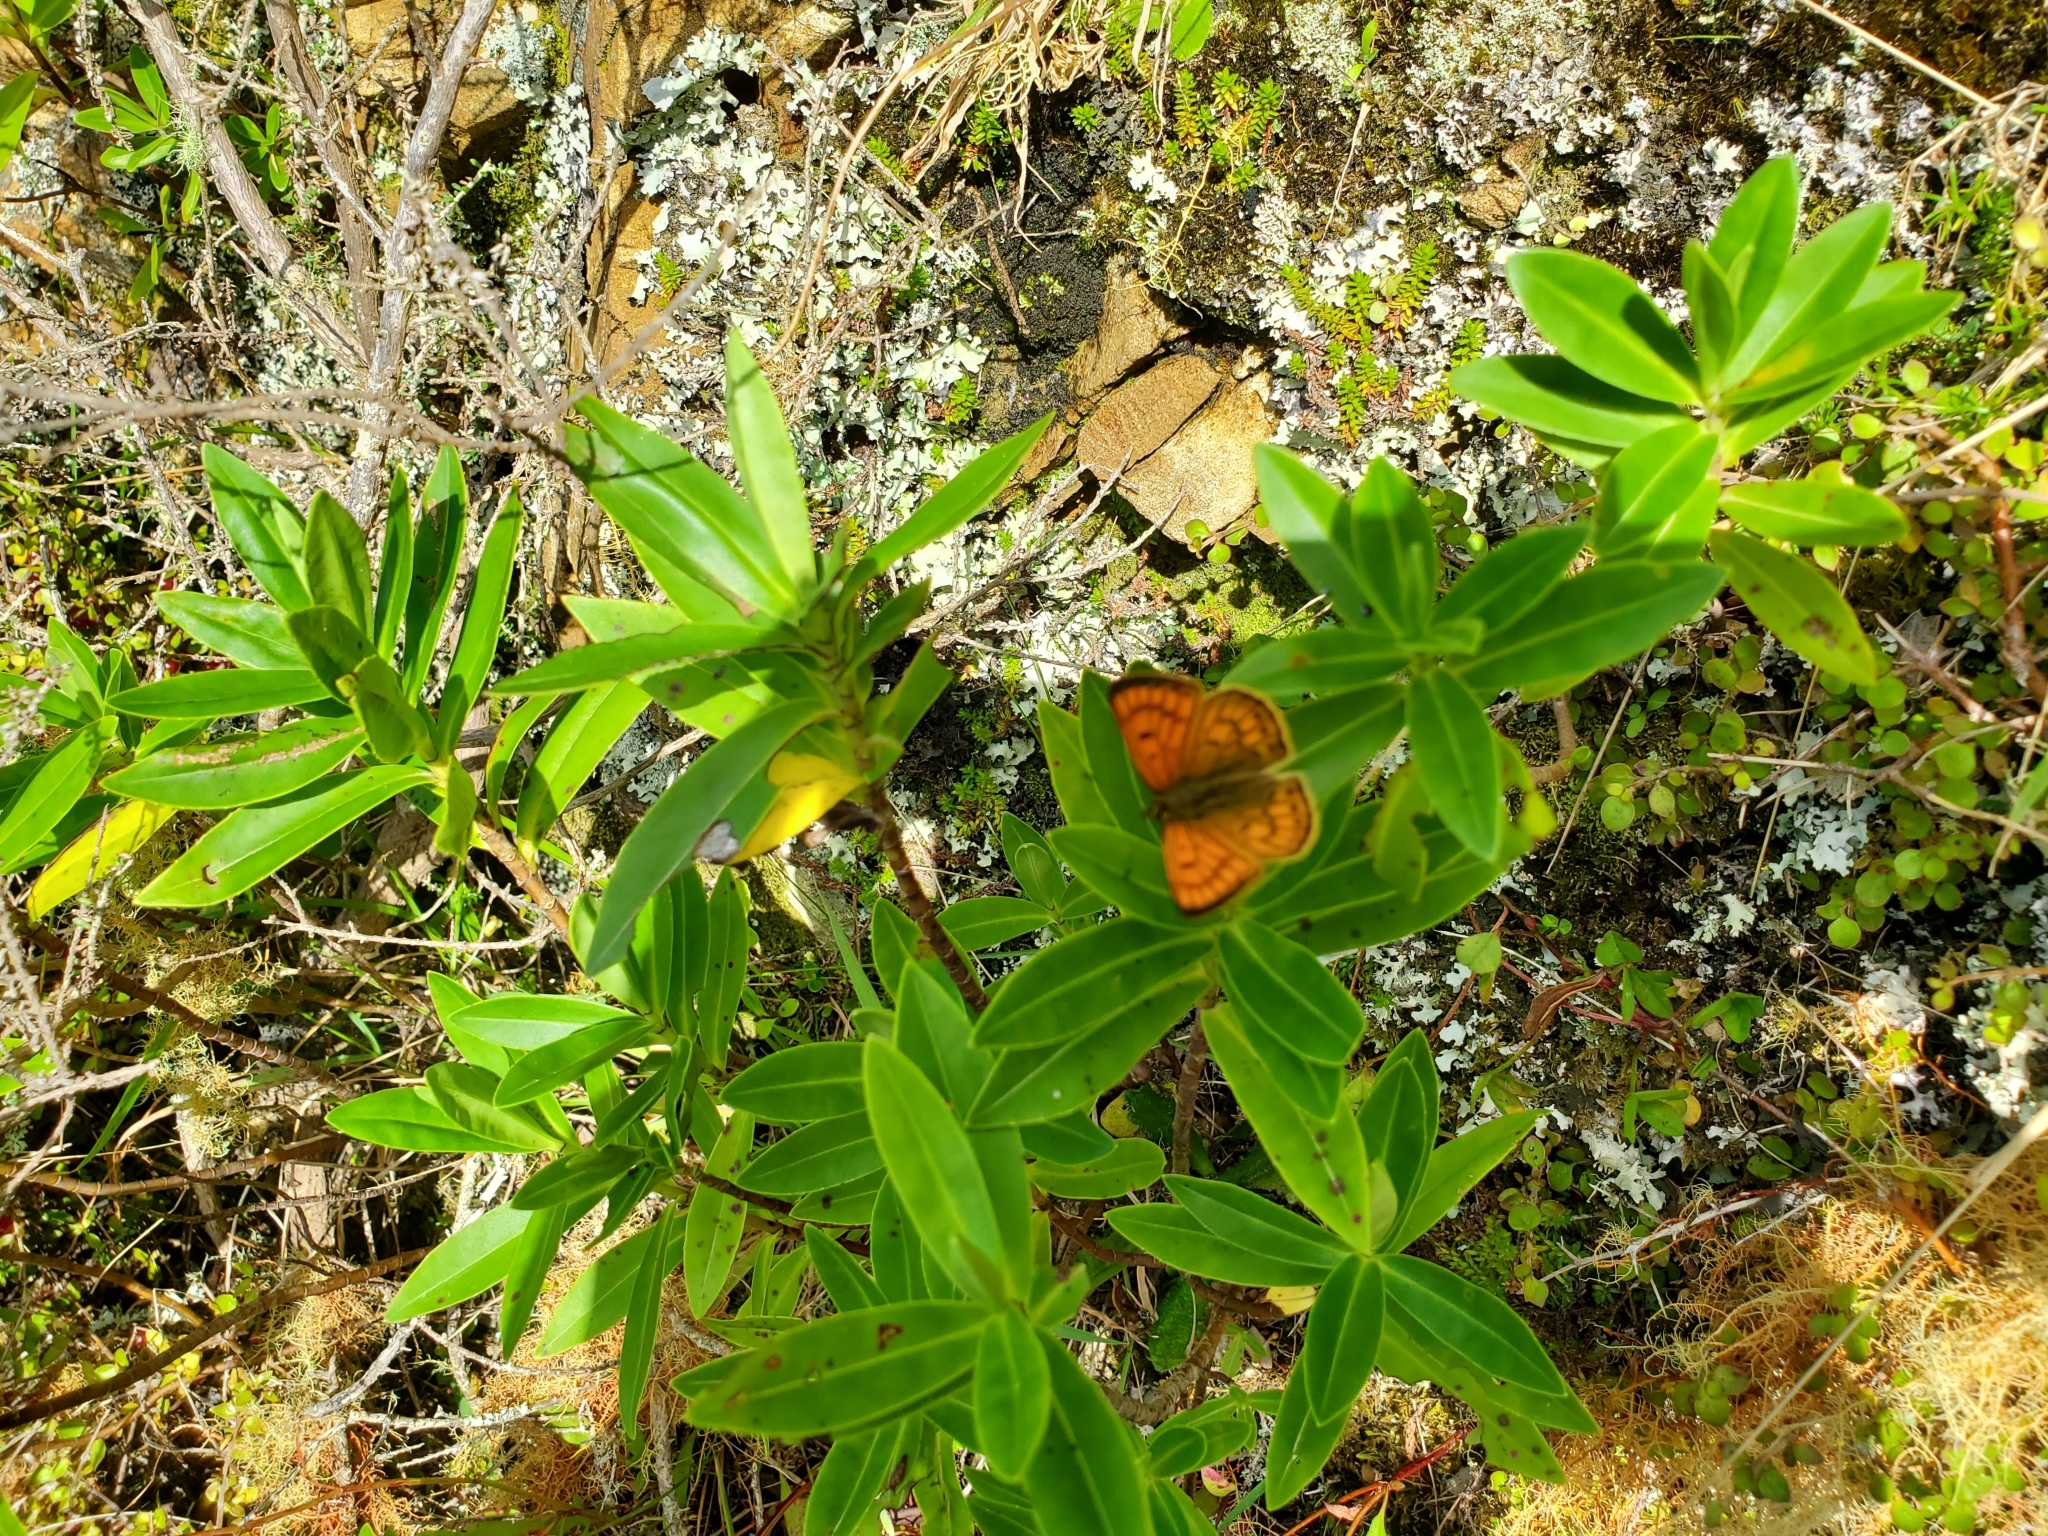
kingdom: Animalia
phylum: Arthropoda
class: Insecta
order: Lepidoptera
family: Lycaenidae
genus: Lycaena
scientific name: Lycaena salustius
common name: North island coastal copper
